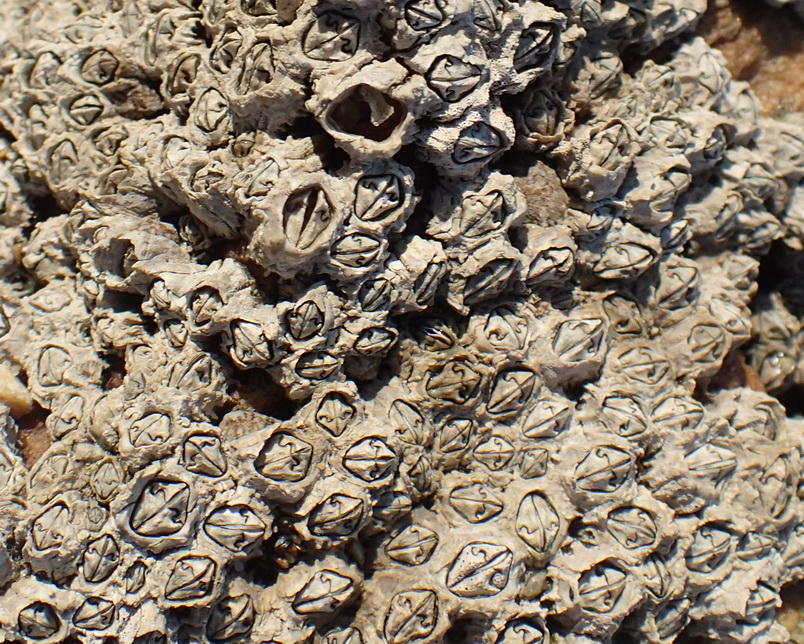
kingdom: Animalia
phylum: Arthropoda
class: Maxillopoda
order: Sessilia
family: Chthamalidae
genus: Chthamalus
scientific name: Chthamalus dentatus
